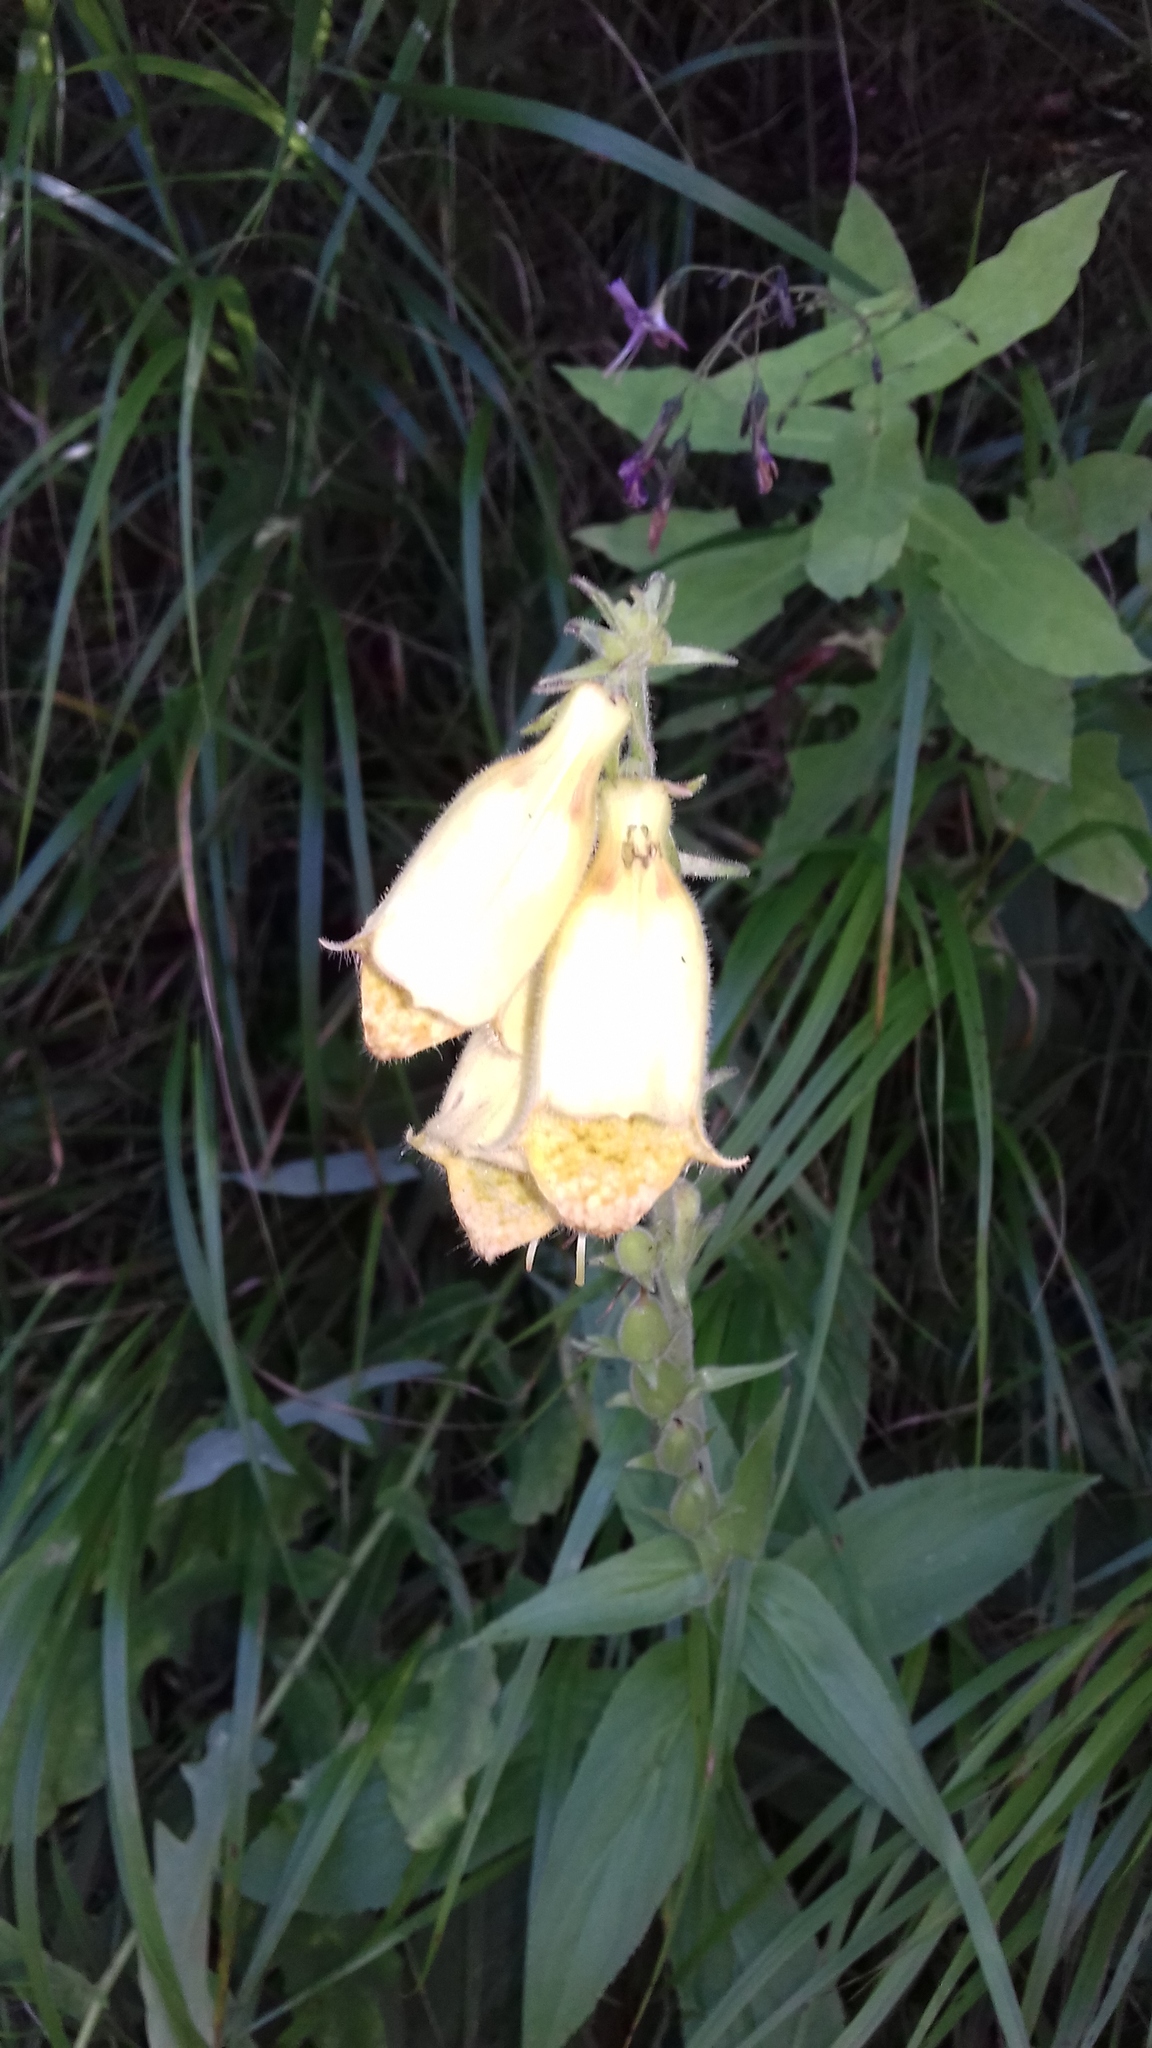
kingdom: Plantae
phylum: Tracheophyta
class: Magnoliopsida
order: Lamiales
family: Plantaginaceae
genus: Digitalis
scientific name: Digitalis grandiflora
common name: Yellow foxglove
